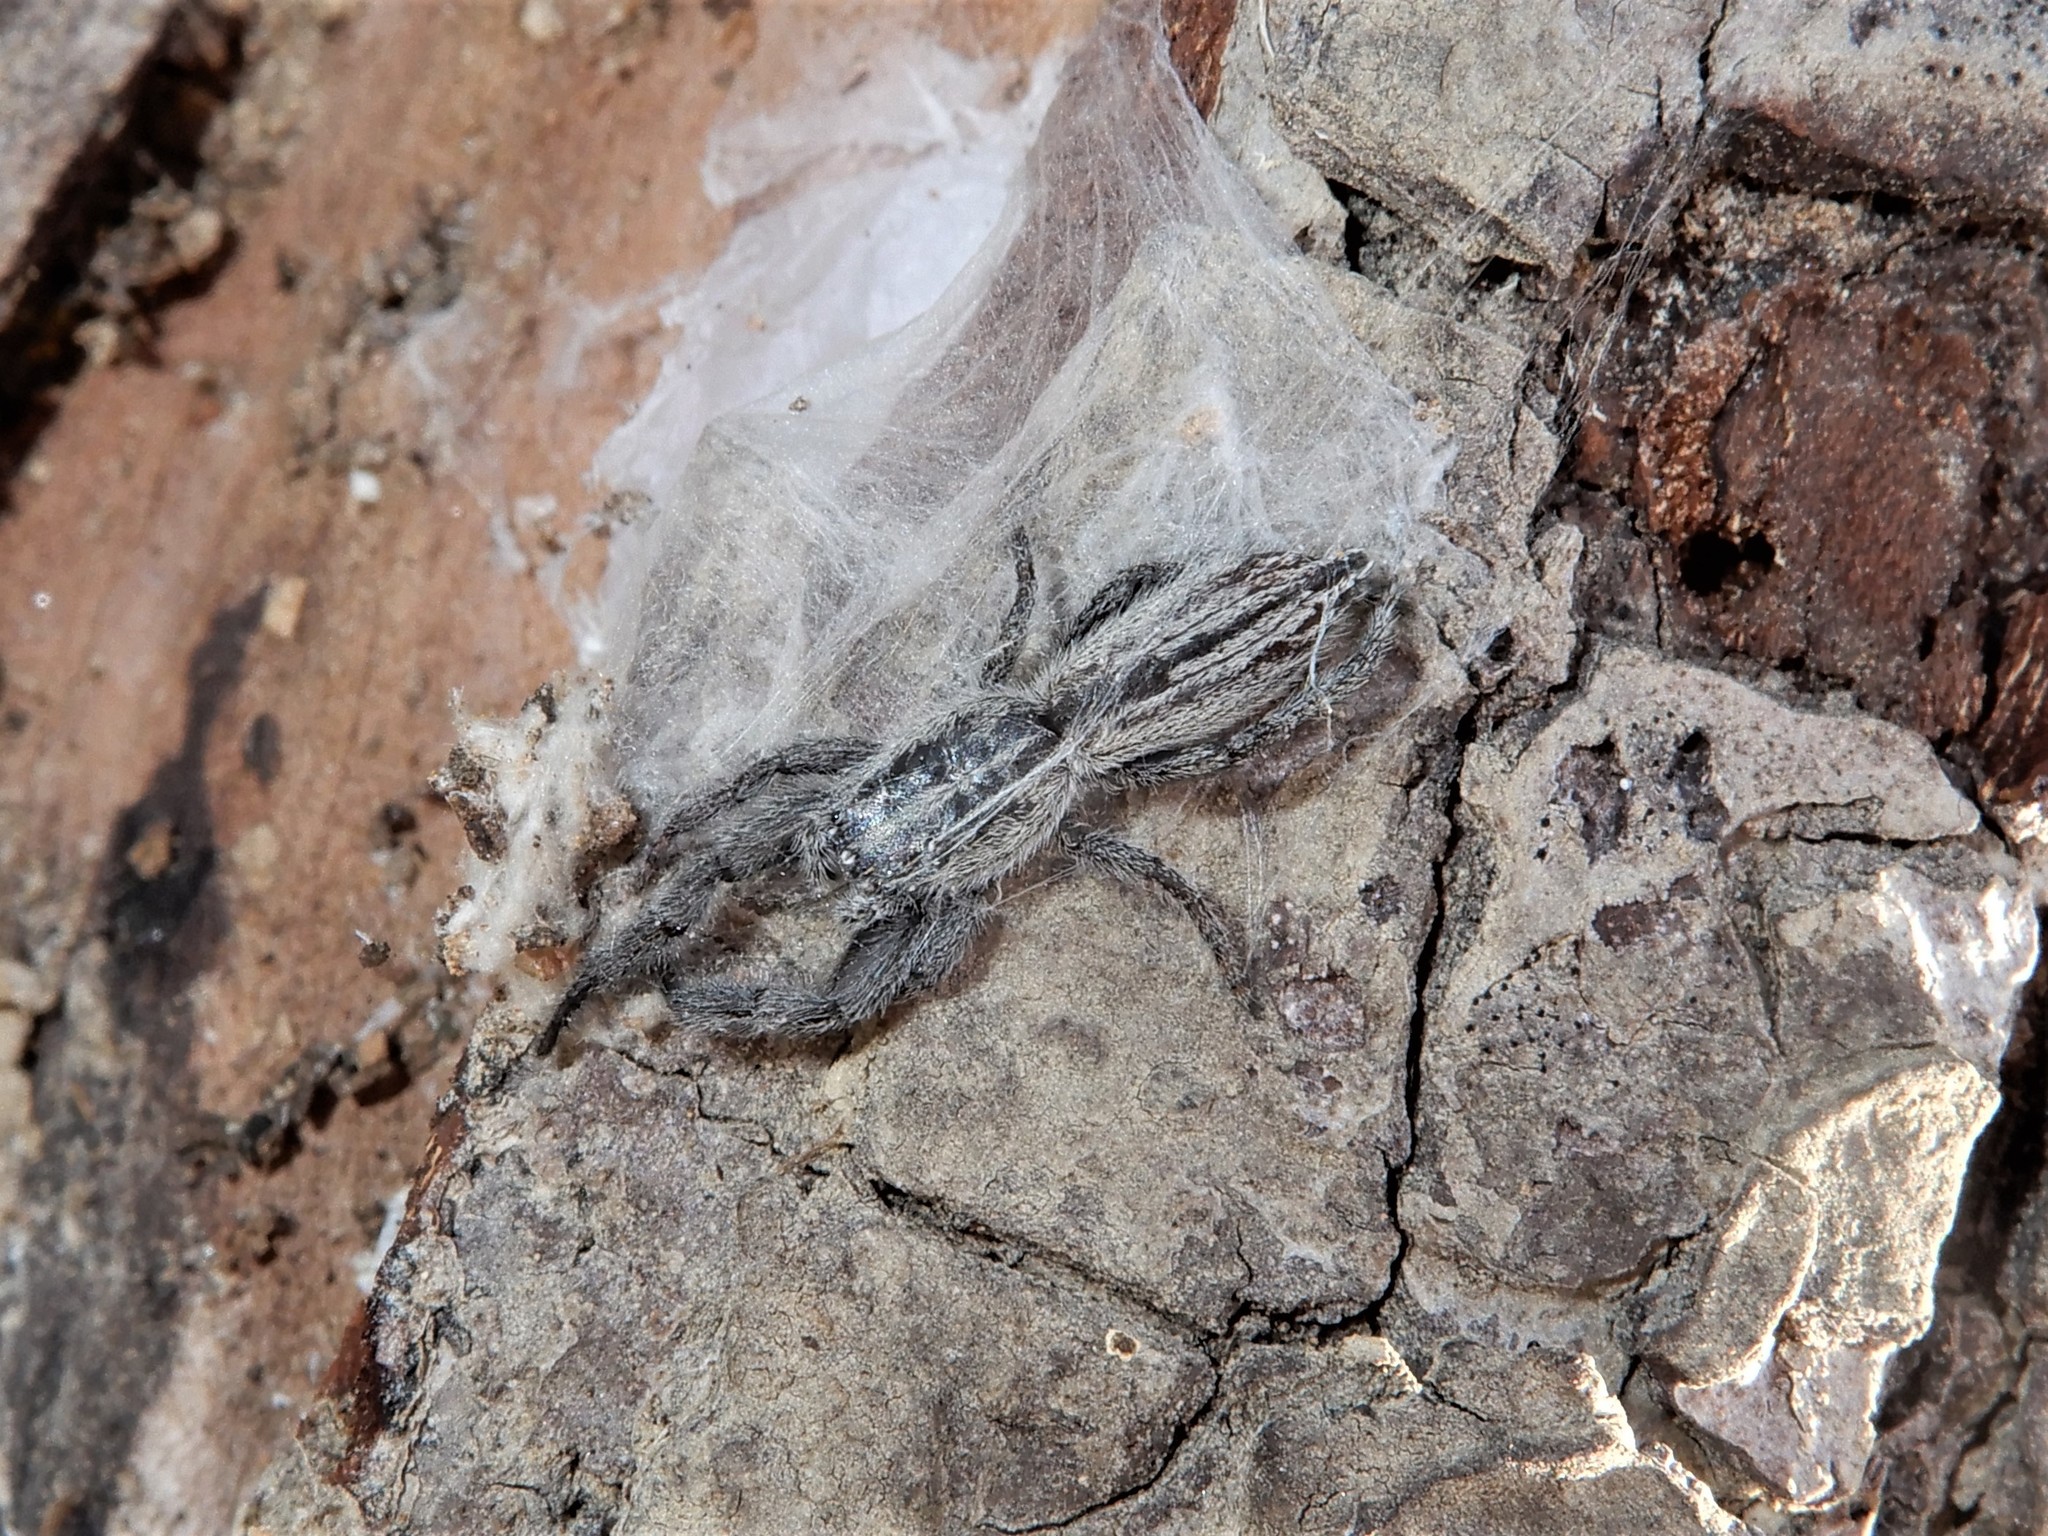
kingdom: Animalia
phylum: Arthropoda
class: Arachnida
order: Araneae
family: Salticidae
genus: Holoplatys
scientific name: Holoplatys apressus
